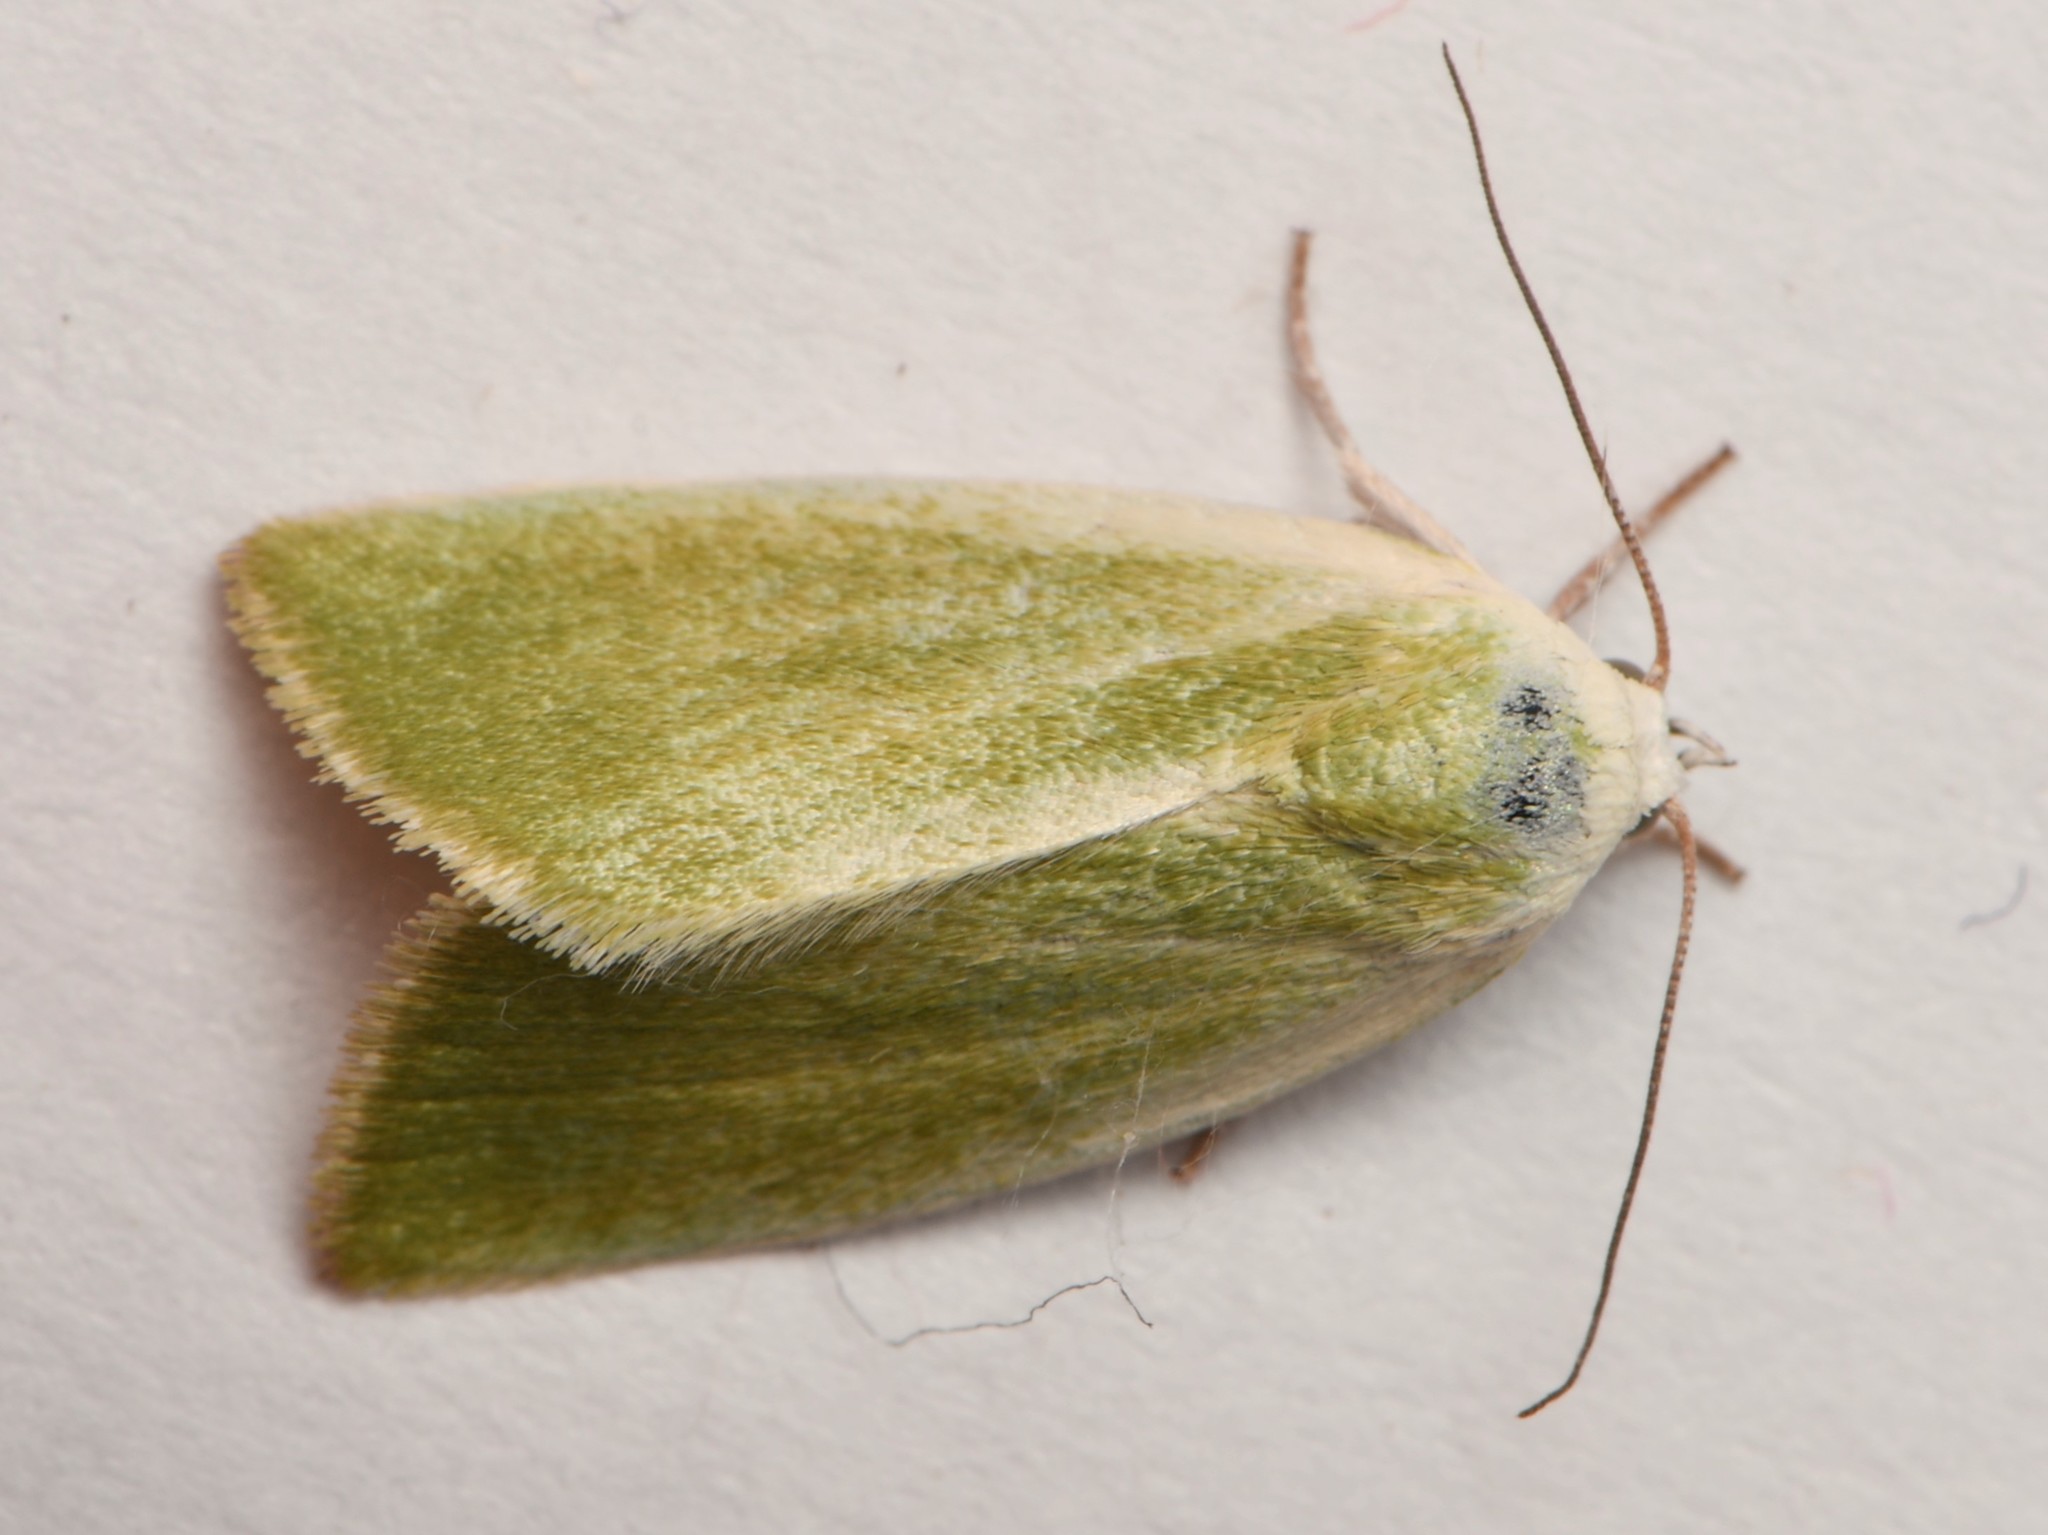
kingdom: Animalia
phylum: Arthropoda
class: Insecta
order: Lepidoptera
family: Nolidae
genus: Earias
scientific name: Earias clorana
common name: Cream-bordered green pea
